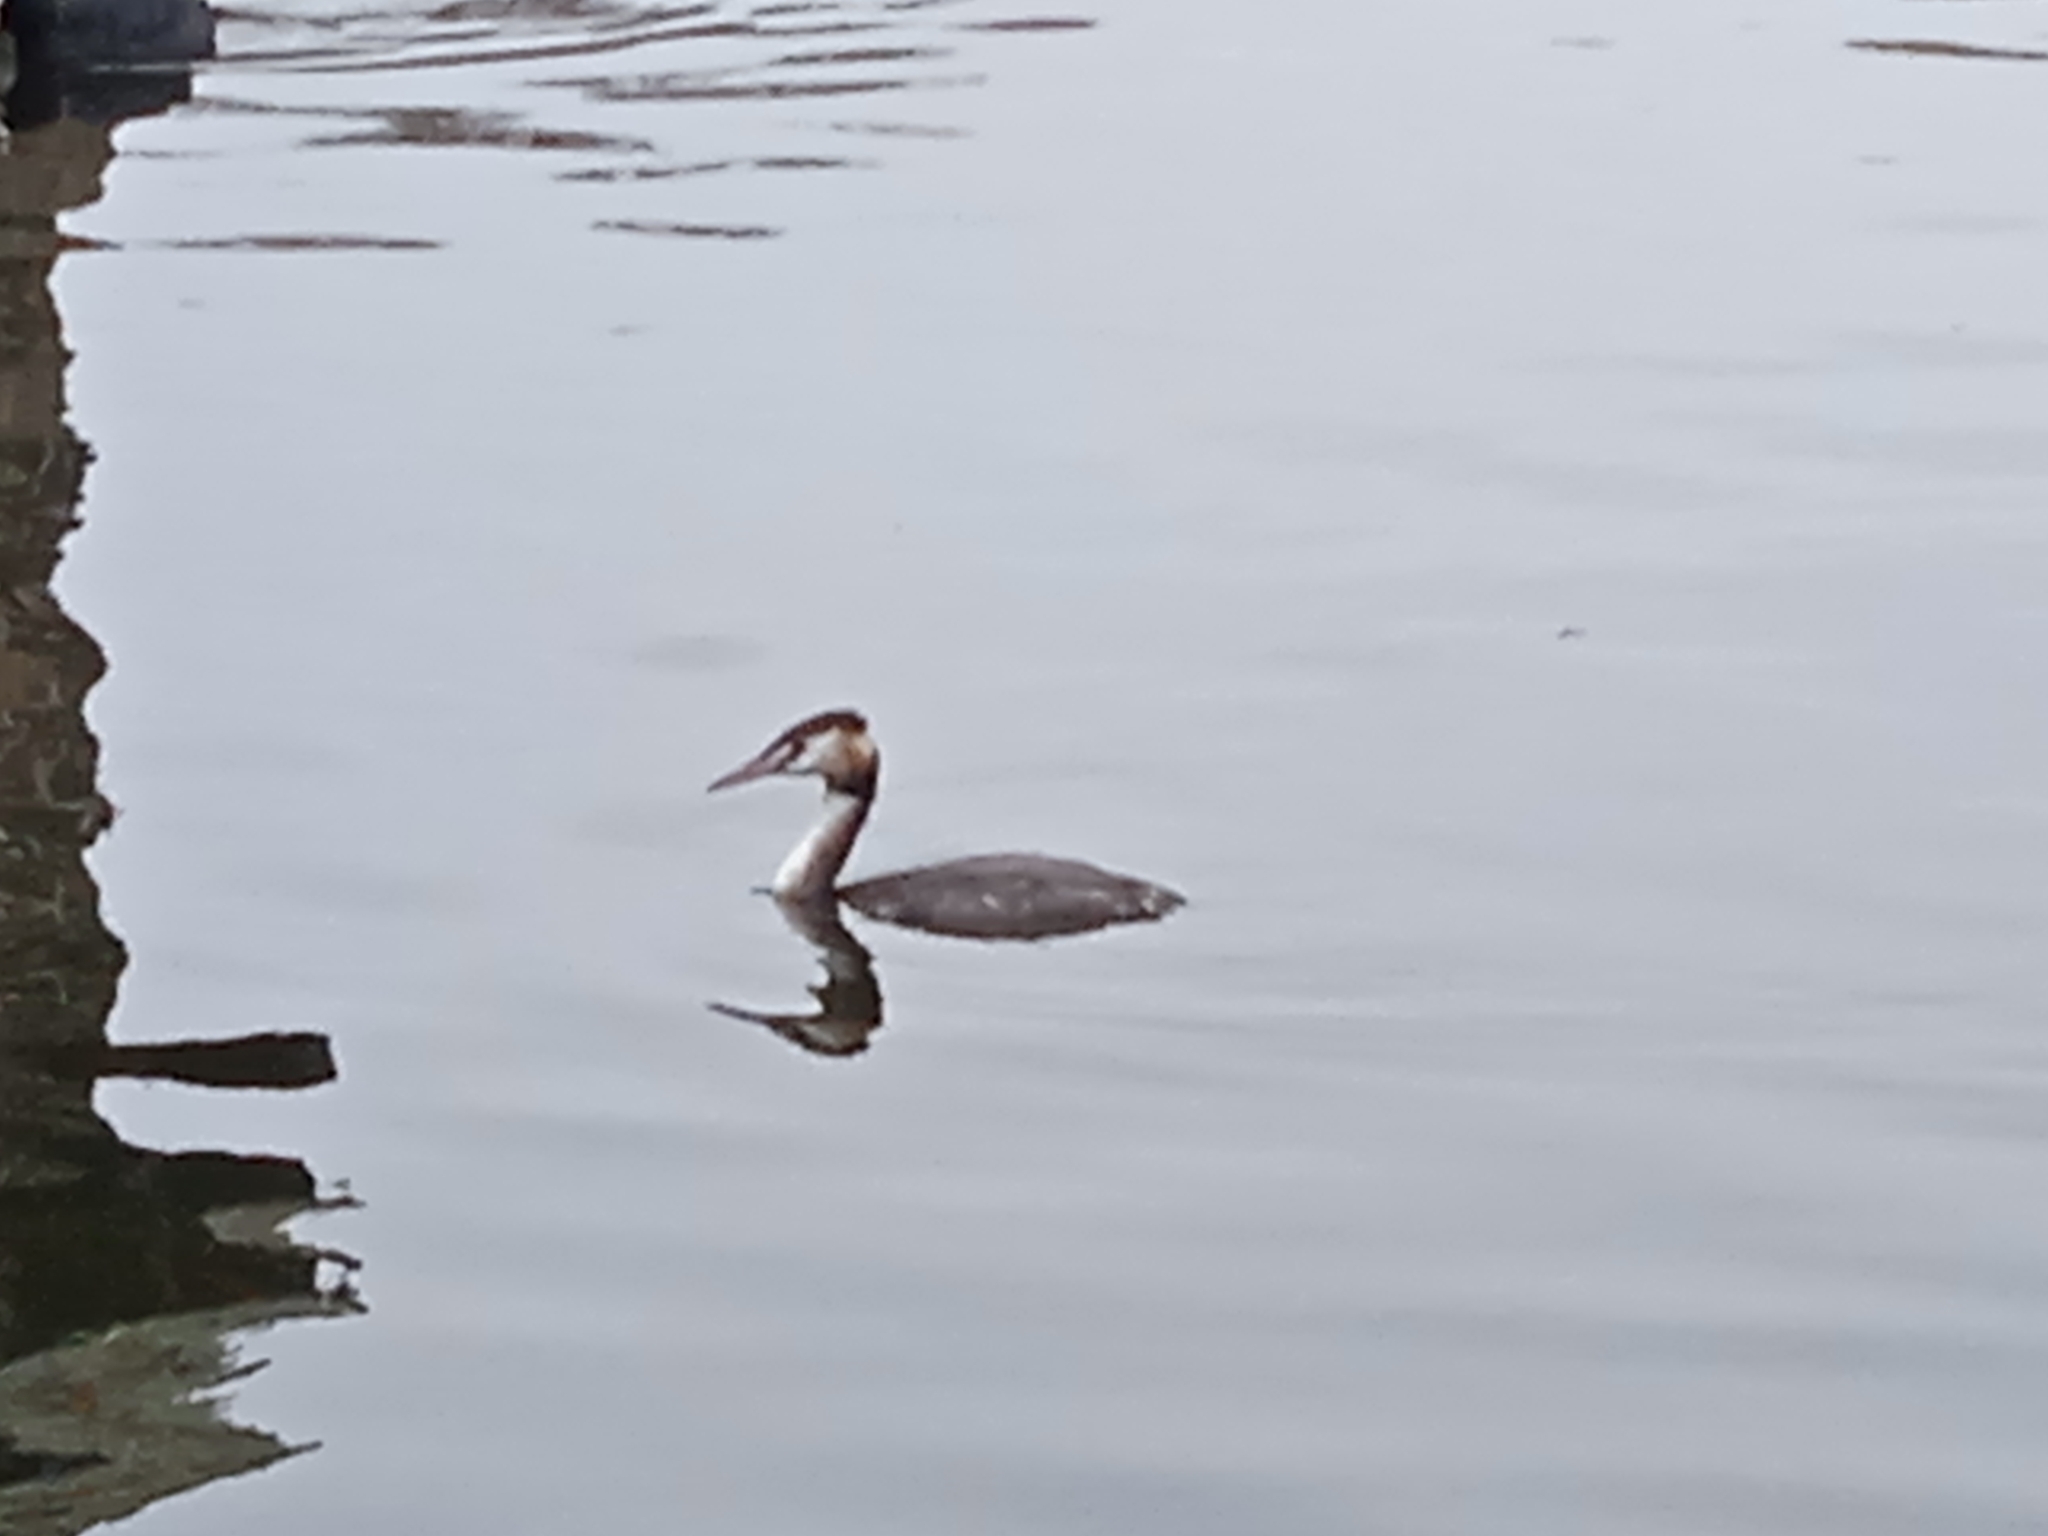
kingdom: Animalia
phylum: Chordata
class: Aves
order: Podicipediformes
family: Podicipedidae
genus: Podiceps
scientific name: Podiceps cristatus
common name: Great crested grebe
